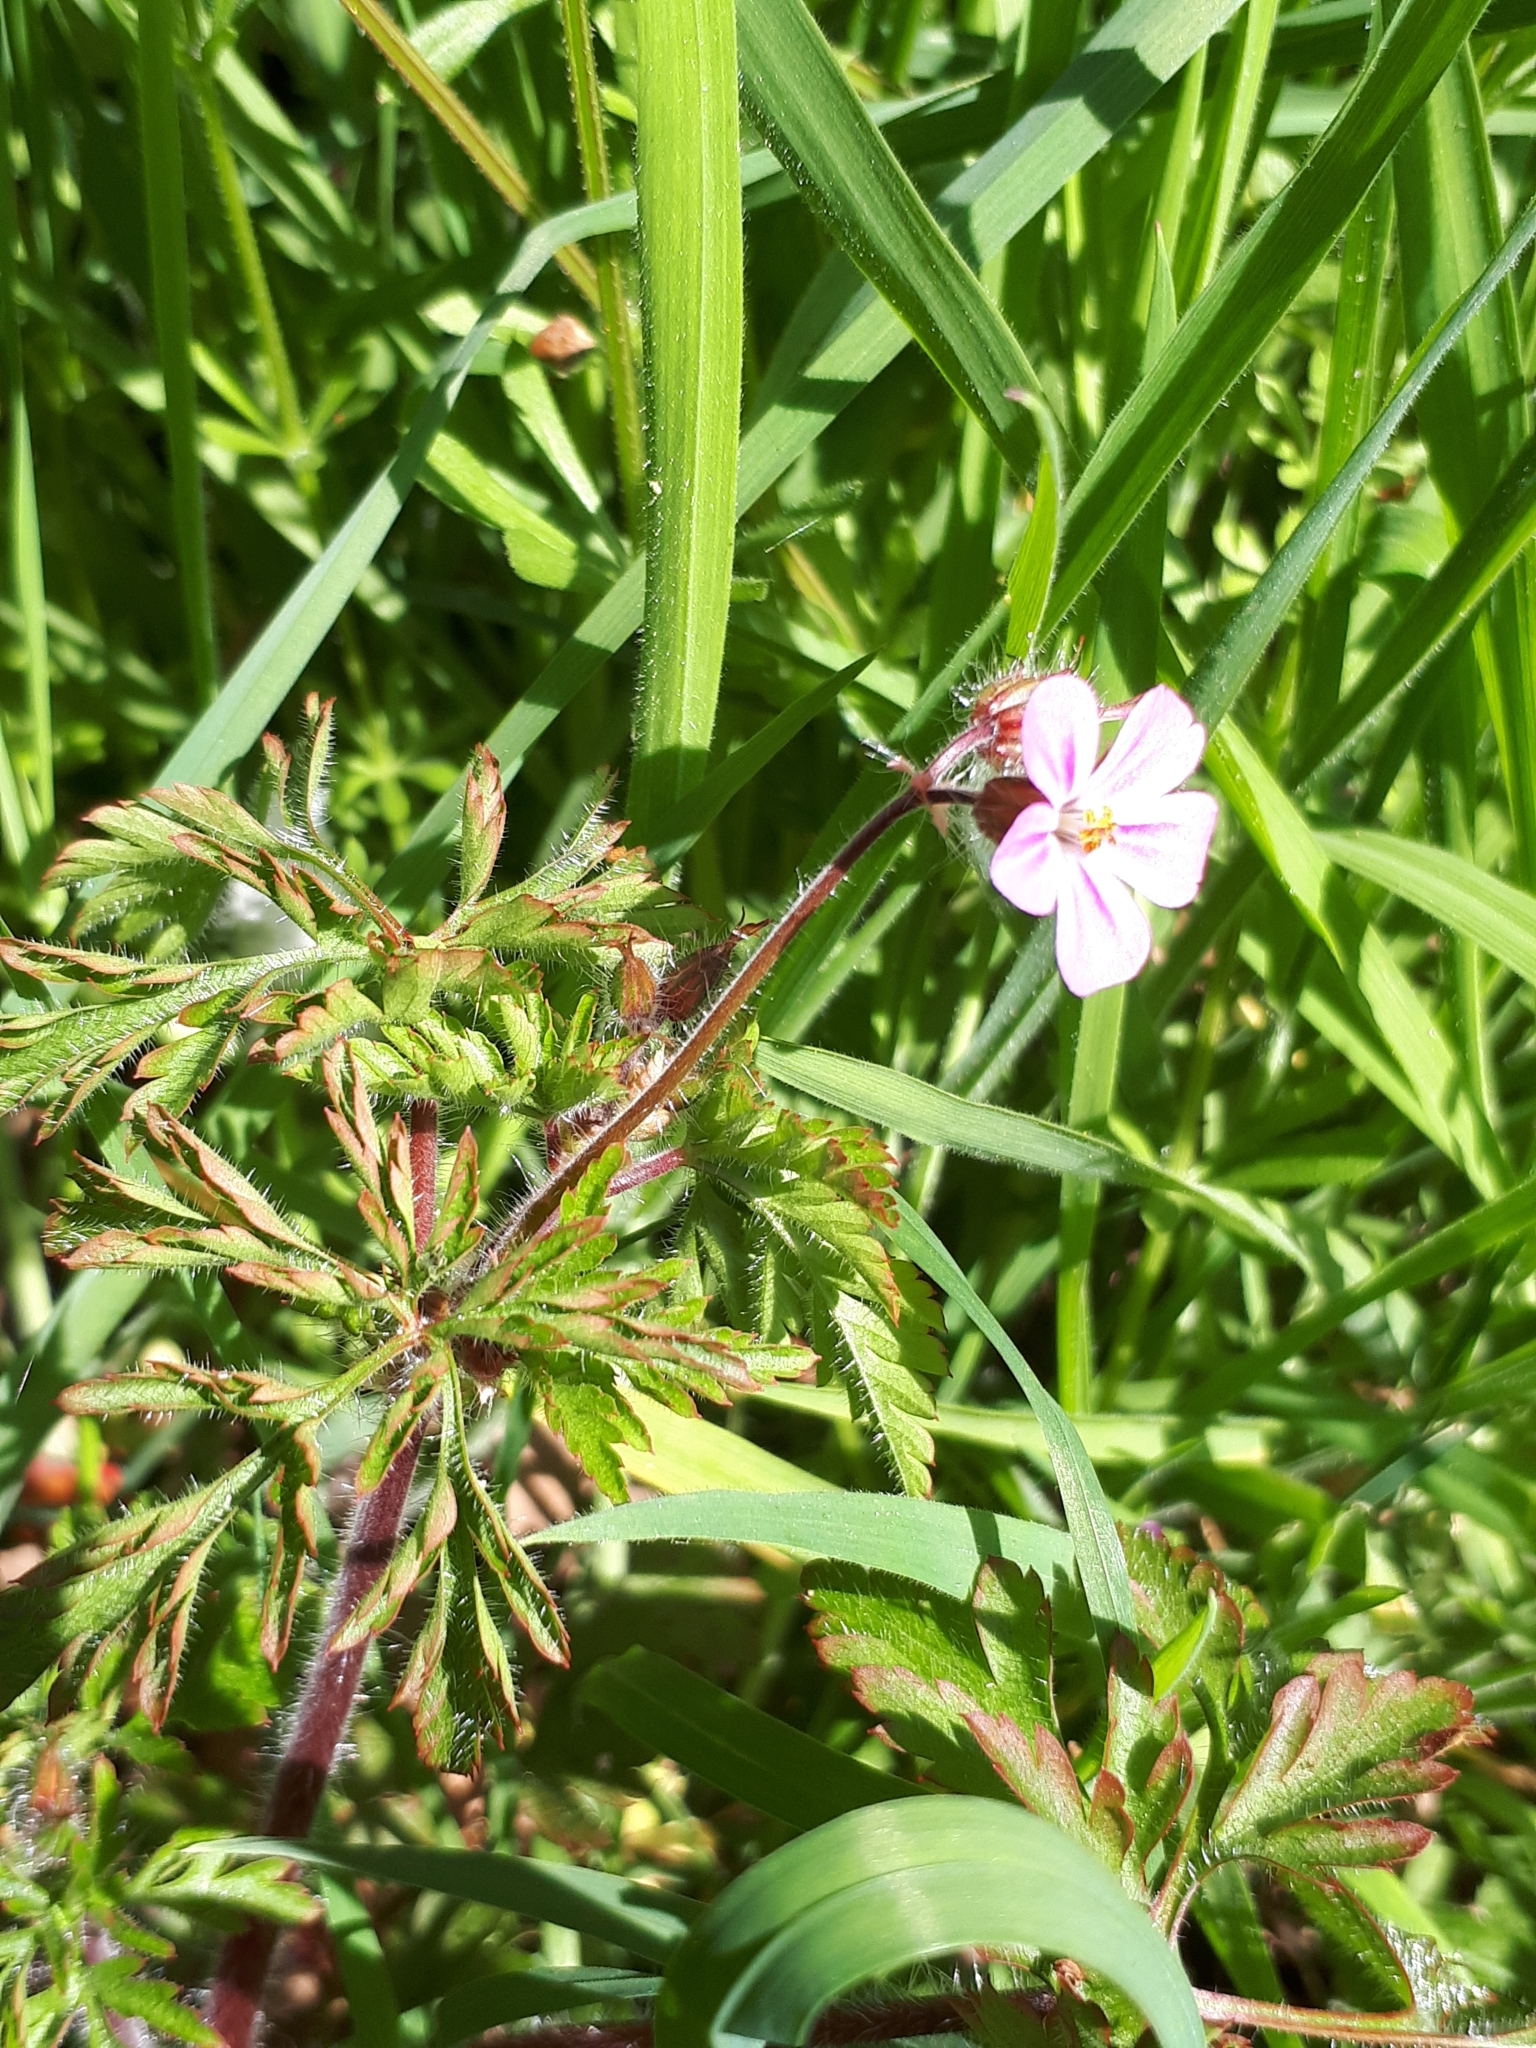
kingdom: Plantae
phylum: Tracheophyta
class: Magnoliopsida
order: Geraniales
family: Geraniaceae
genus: Geranium
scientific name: Geranium robertianum
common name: Herb-robert
